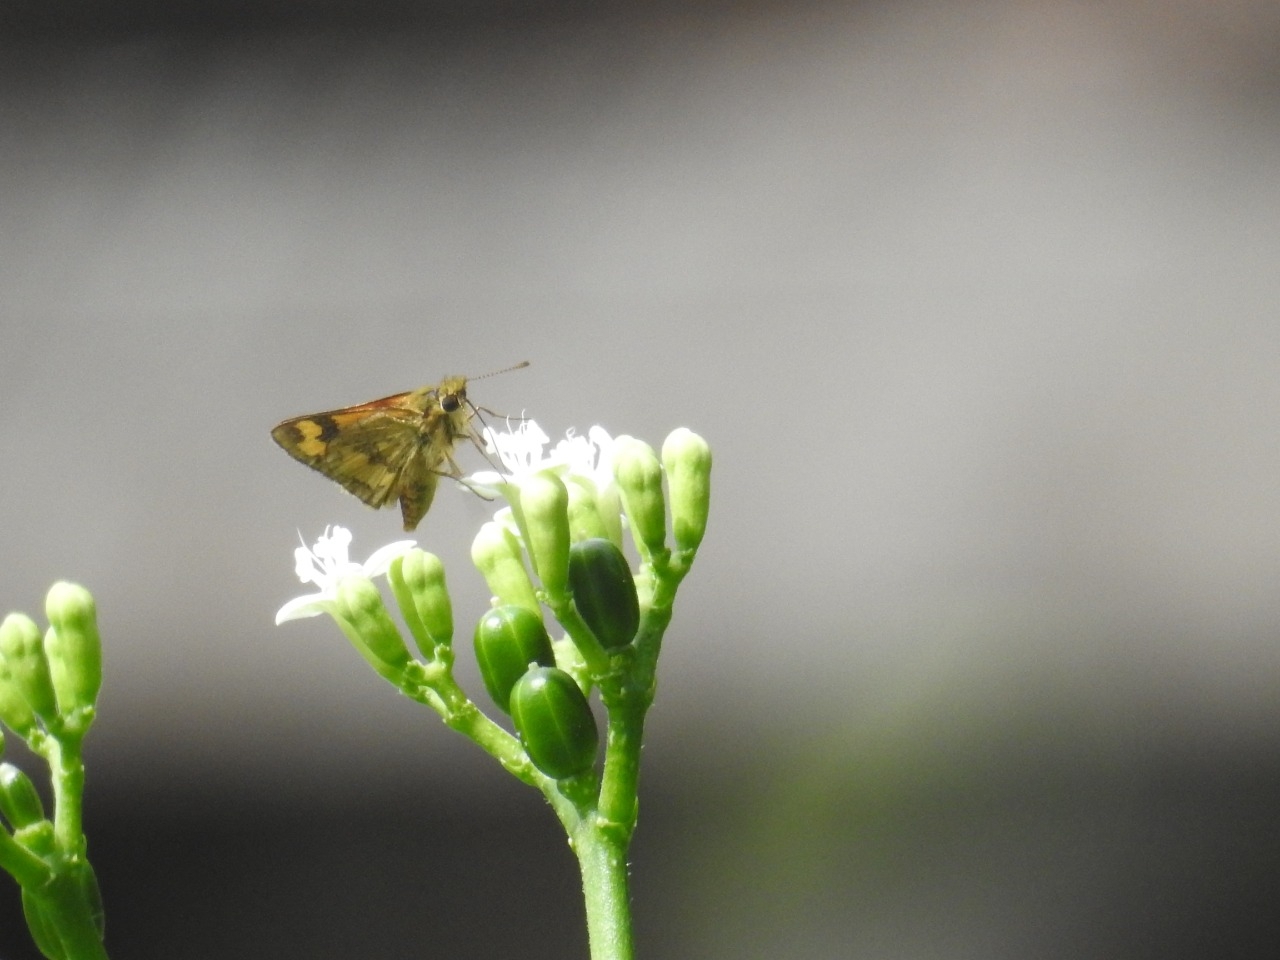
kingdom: Animalia
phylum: Arthropoda
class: Insecta
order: Lepidoptera
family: Hesperiidae
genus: Taractrocera
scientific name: Taractrocera archias
